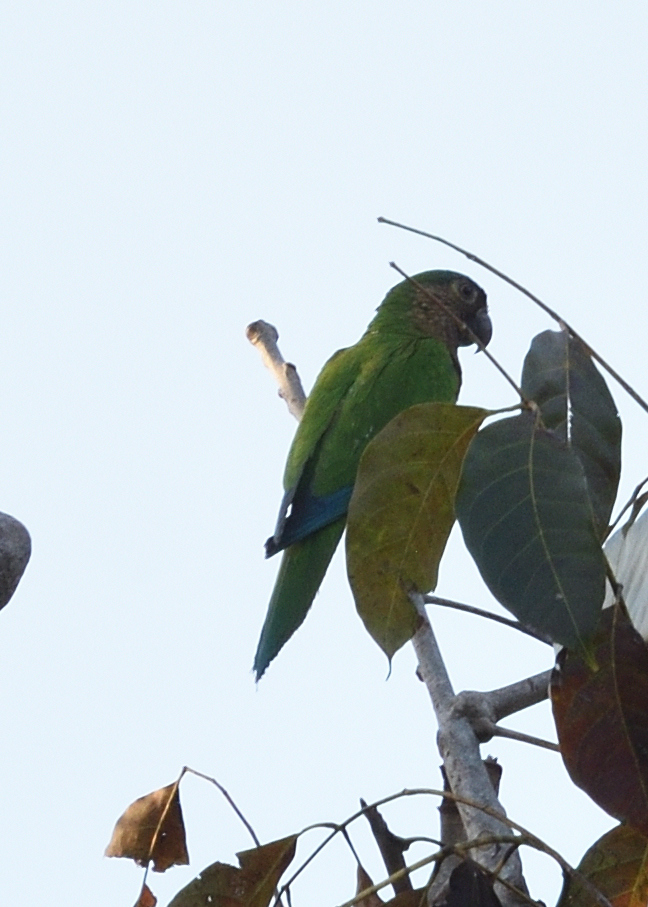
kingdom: Animalia
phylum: Chordata
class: Aves
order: Psittaciformes
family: Psittacidae
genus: Aratinga
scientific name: Aratinga pertinax
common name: Brown-throated parakeet
